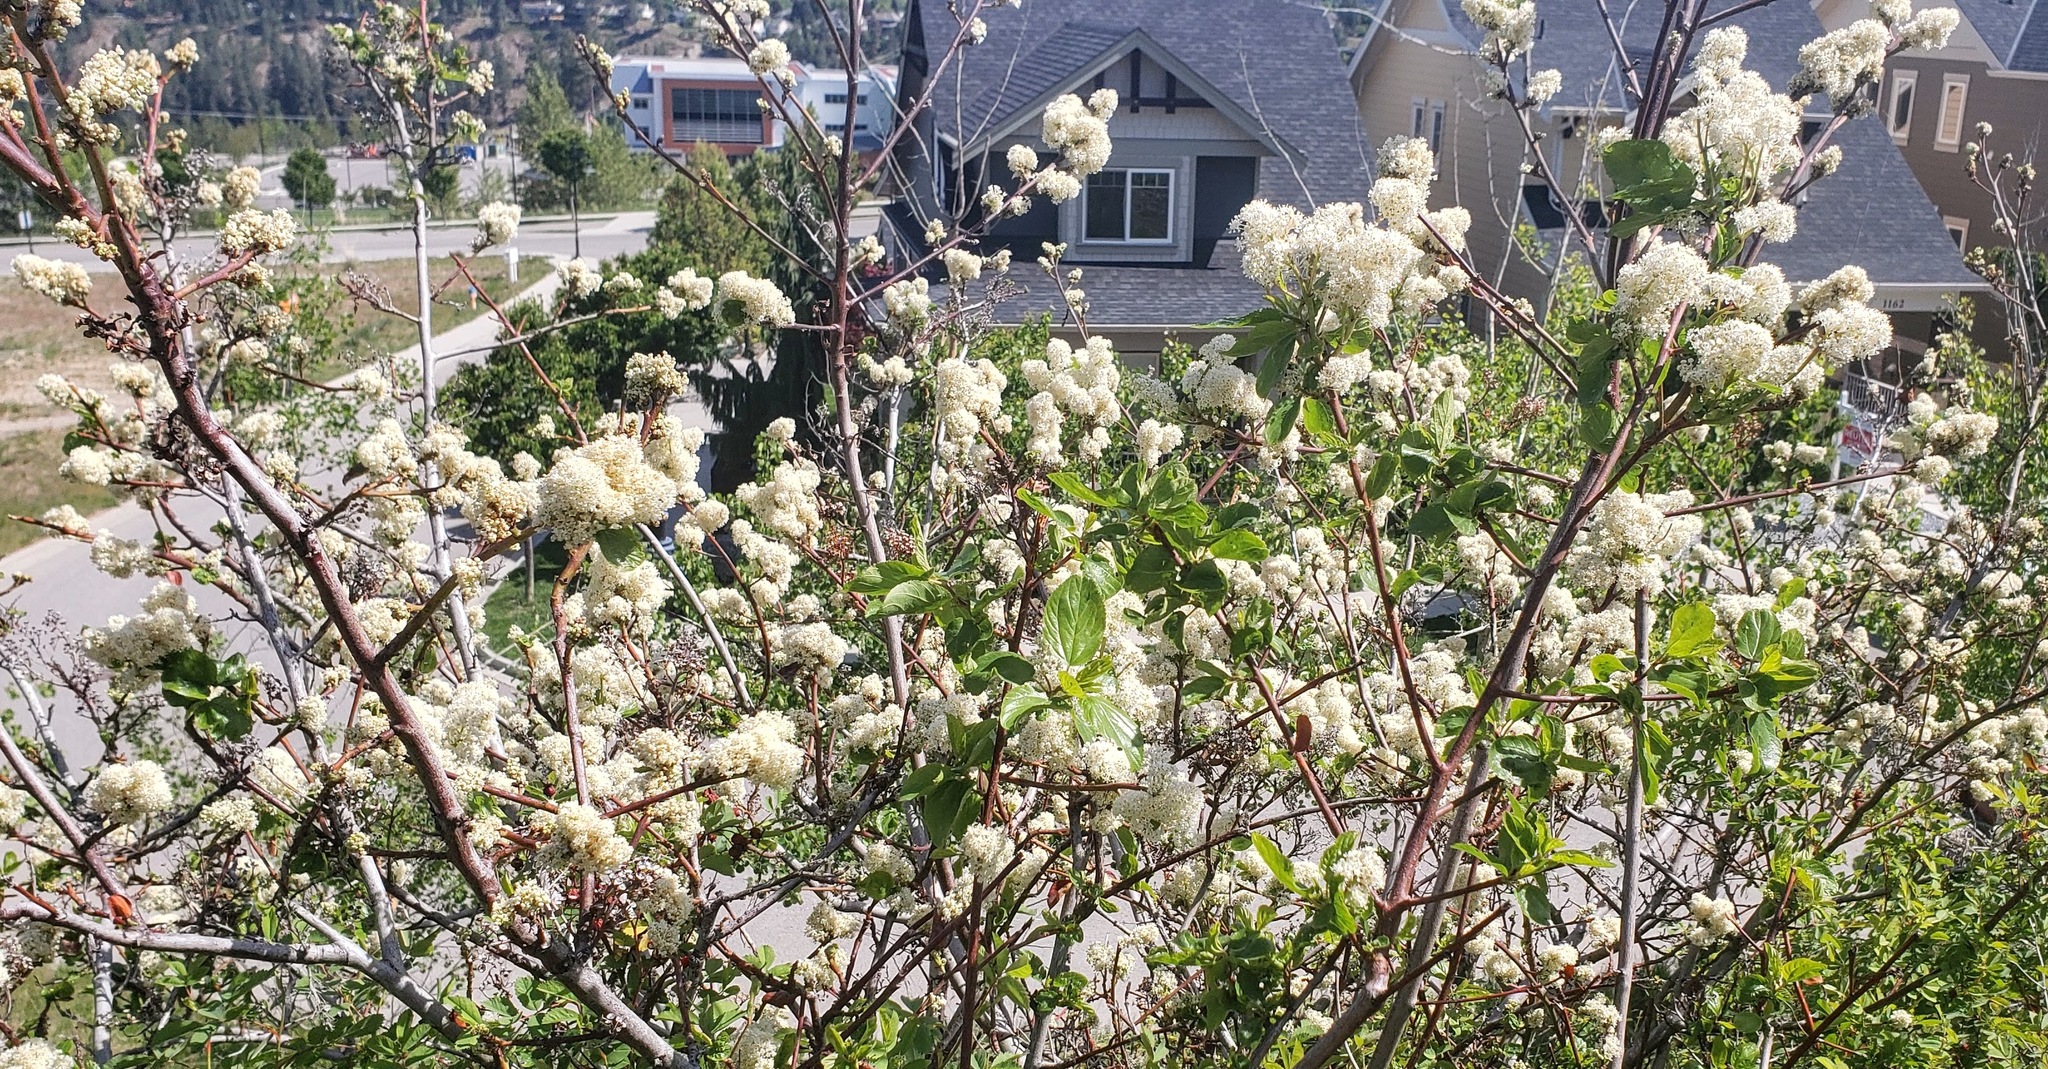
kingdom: Plantae
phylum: Tracheophyta
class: Magnoliopsida
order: Rosales
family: Rhamnaceae
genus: Ceanothus
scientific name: Ceanothus sanguineus
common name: Teatree
